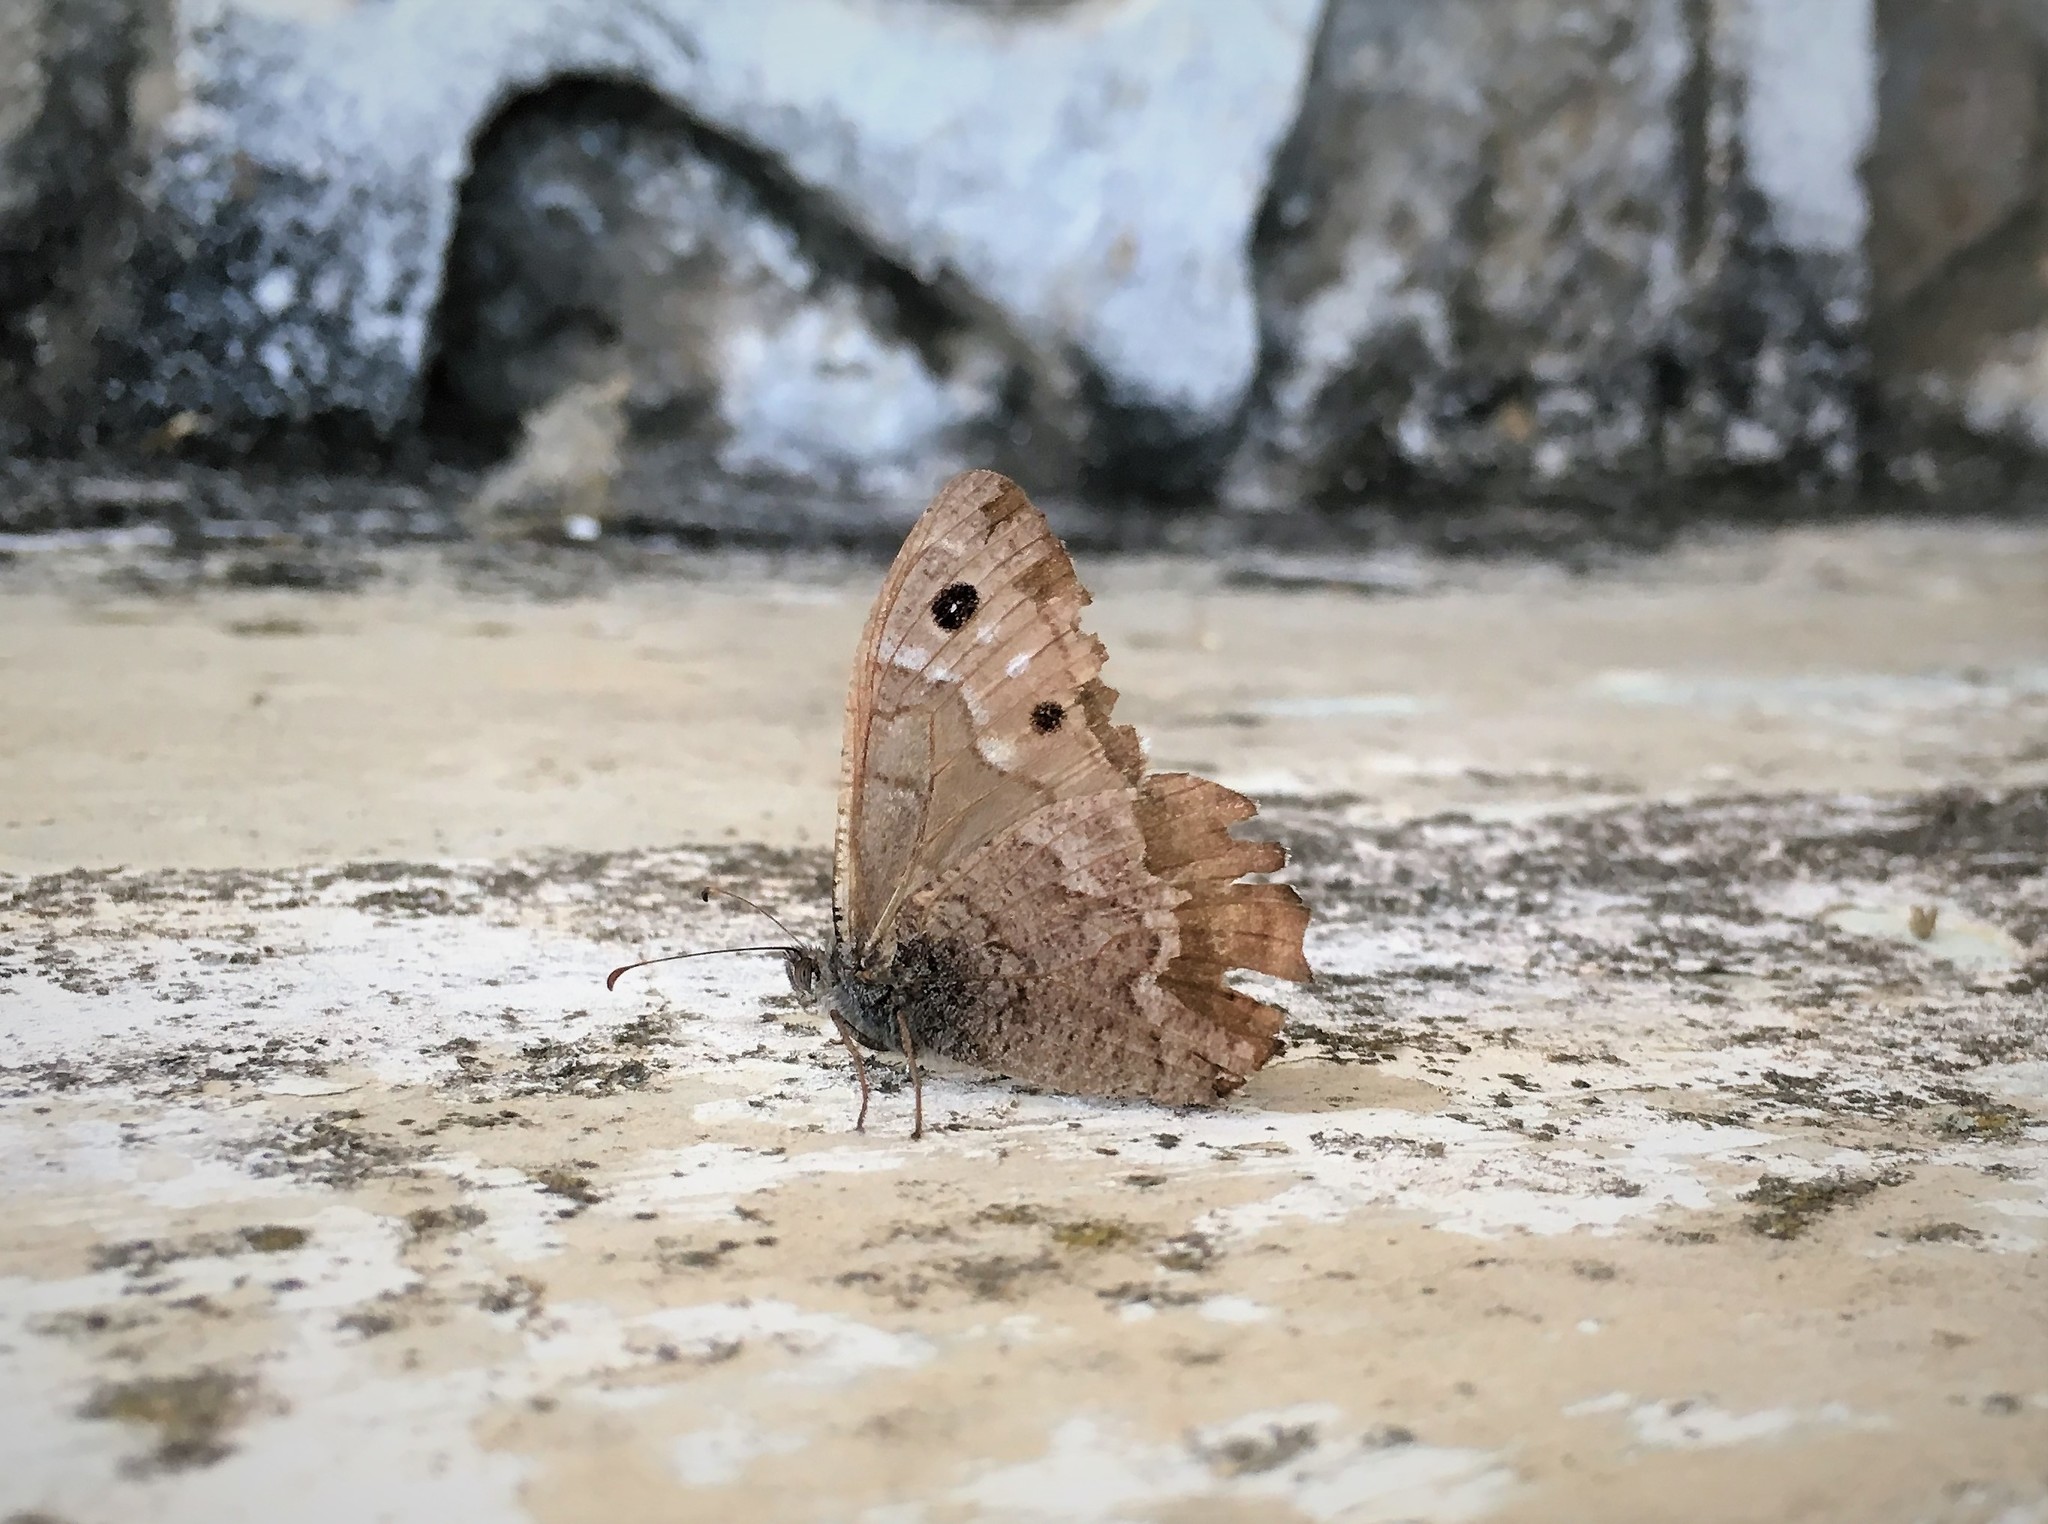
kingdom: Animalia
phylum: Arthropoda
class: Insecta
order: Lepidoptera
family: Nymphalidae
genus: Hipparchia
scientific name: Hipparchia tamadabae
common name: Gran canaria grayling
